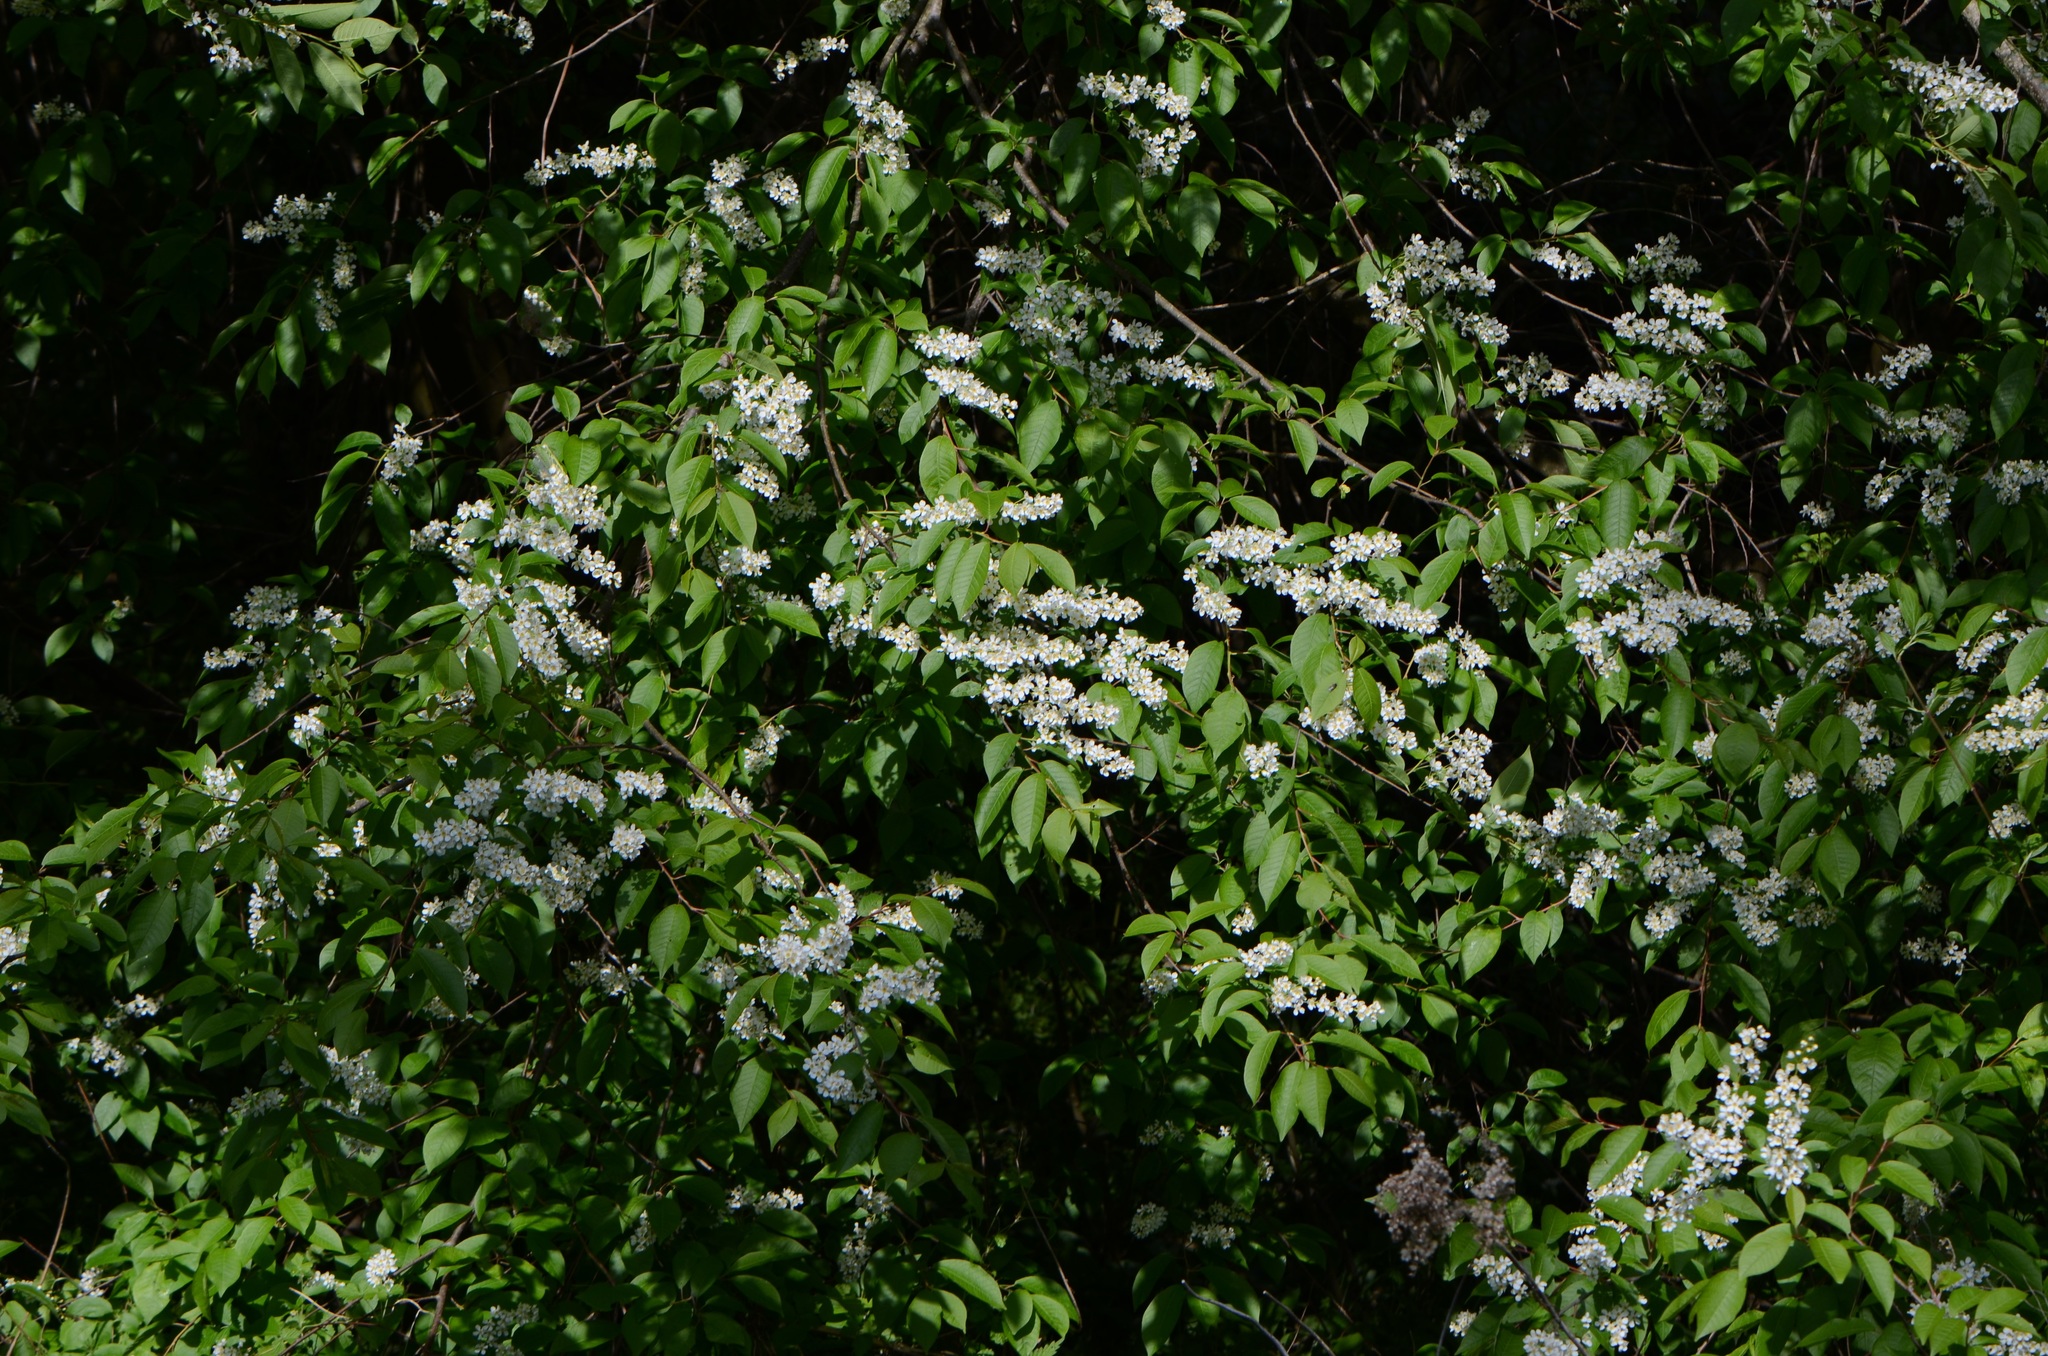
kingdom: Plantae
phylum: Tracheophyta
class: Magnoliopsida
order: Rosales
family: Rosaceae
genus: Prunus
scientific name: Prunus padus
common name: Bird cherry
